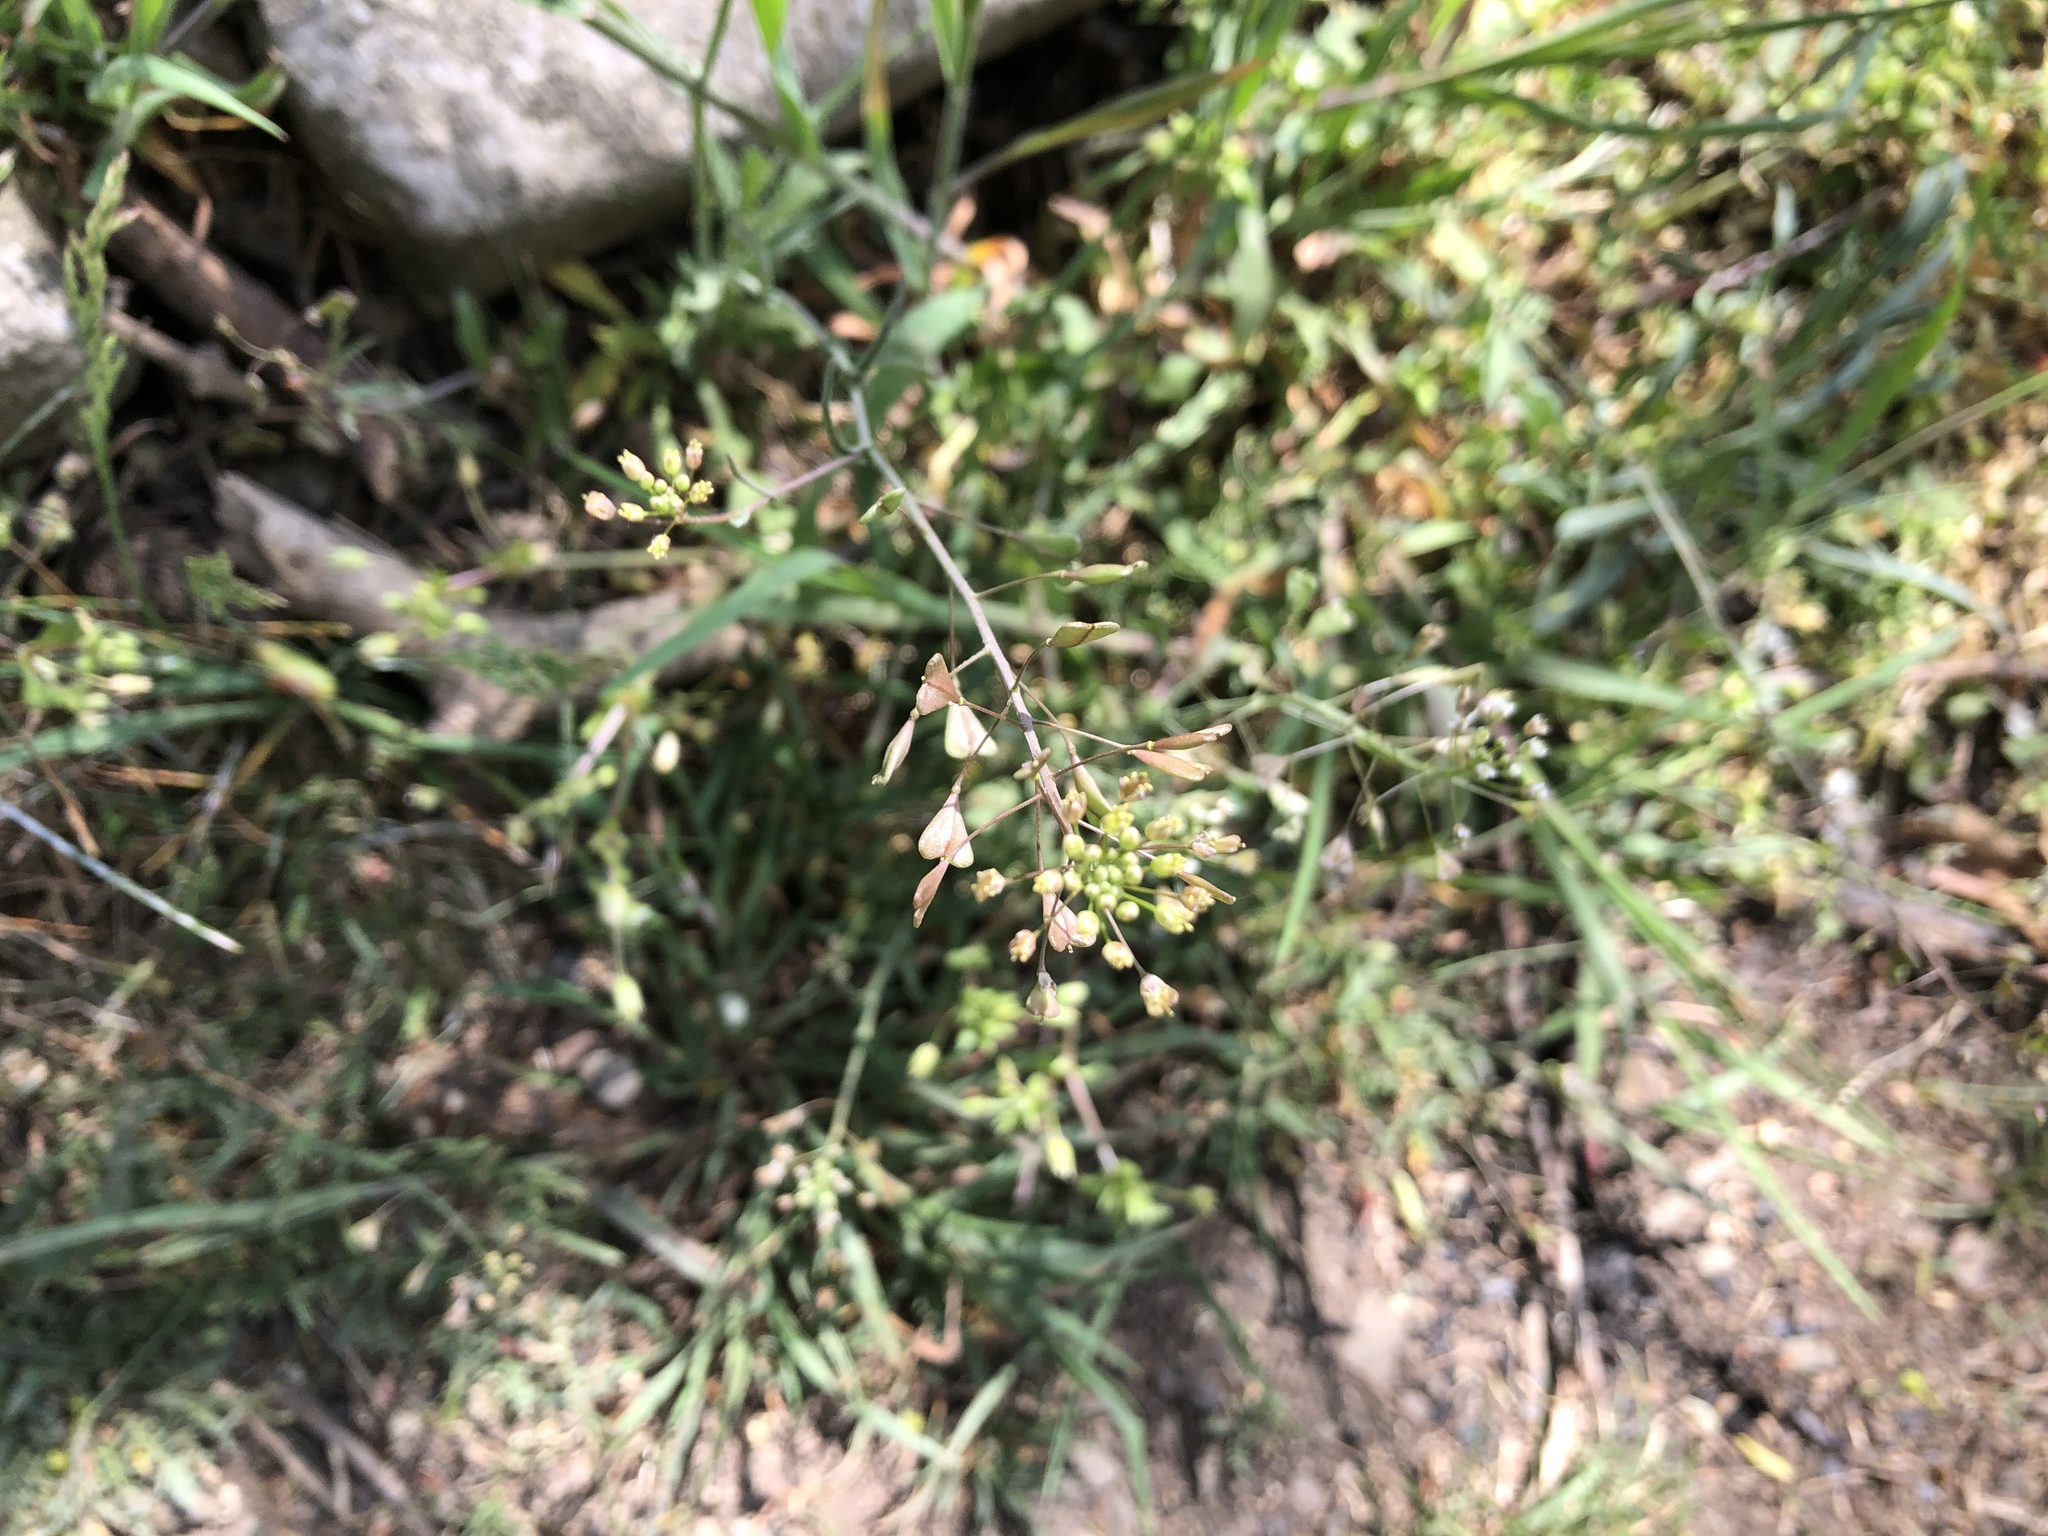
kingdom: Plantae
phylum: Tracheophyta
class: Magnoliopsida
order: Brassicales
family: Brassicaceae
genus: Capsella
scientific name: Capsella bursa-pastoris
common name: Shepherd's purse
